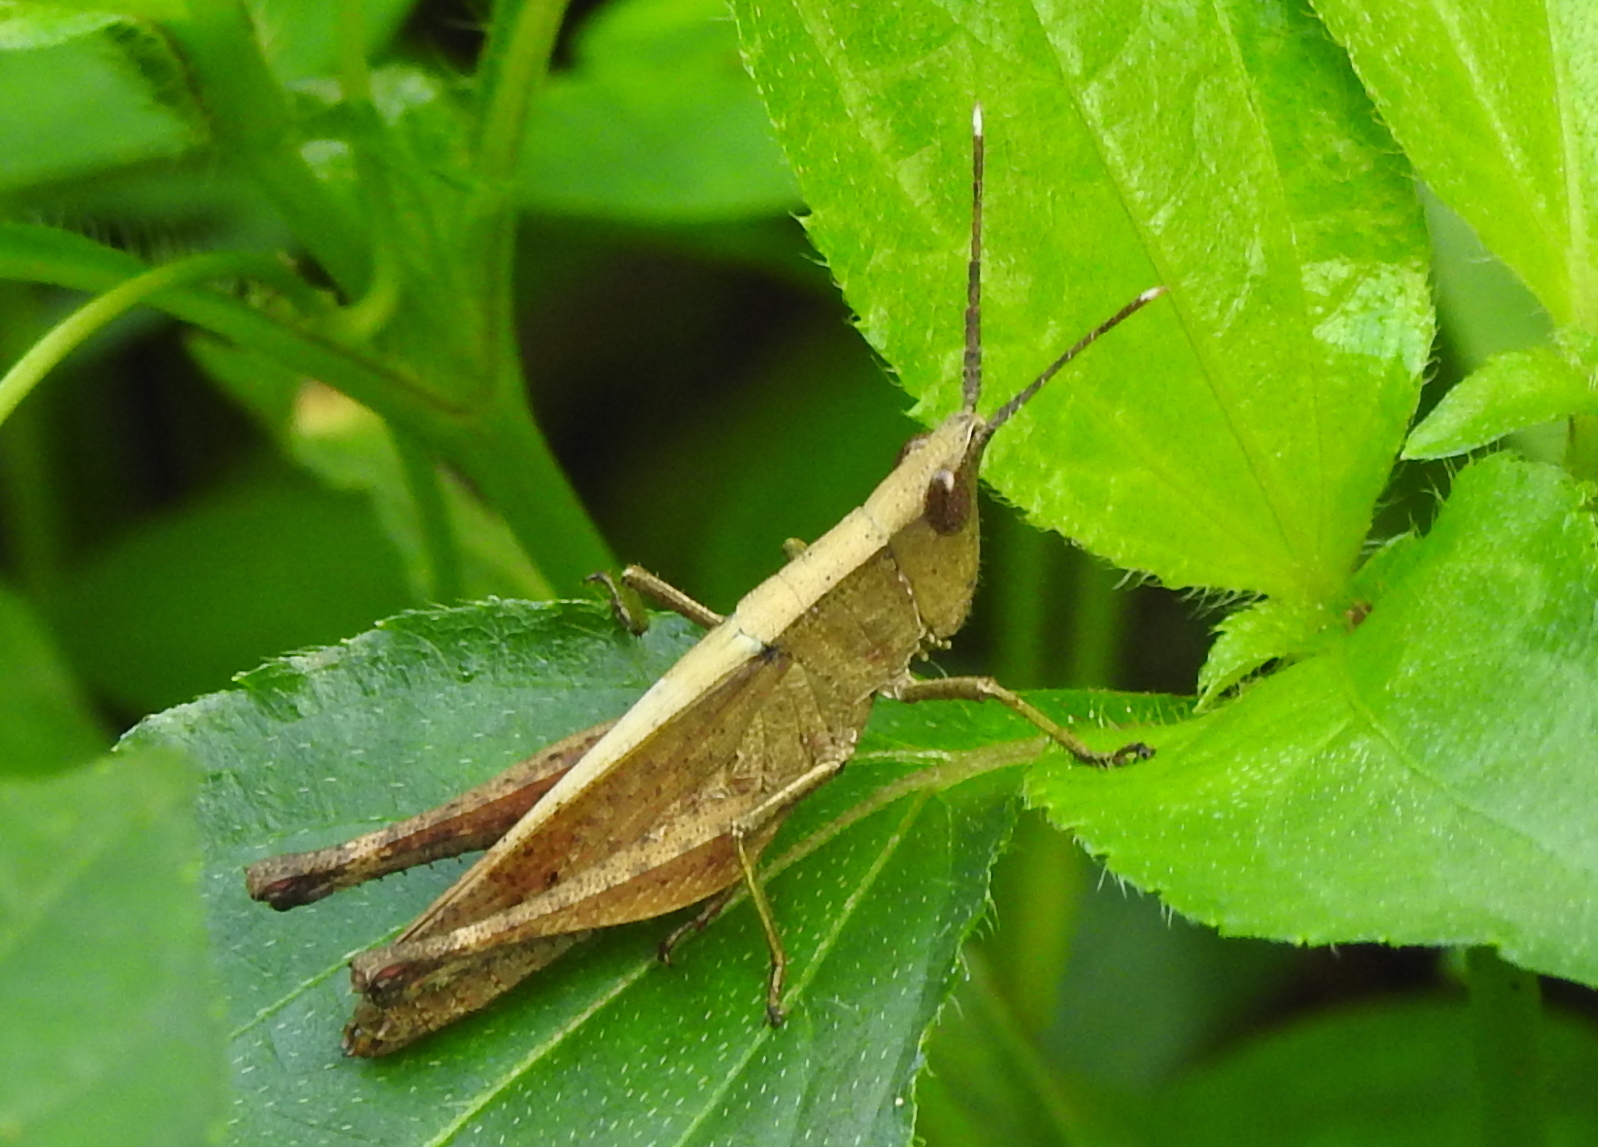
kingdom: Animalia
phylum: Arthropoda
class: Insecta
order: Orthoptera
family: Acrididae
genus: Phlaeoba
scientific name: Phlaeoba antennata
